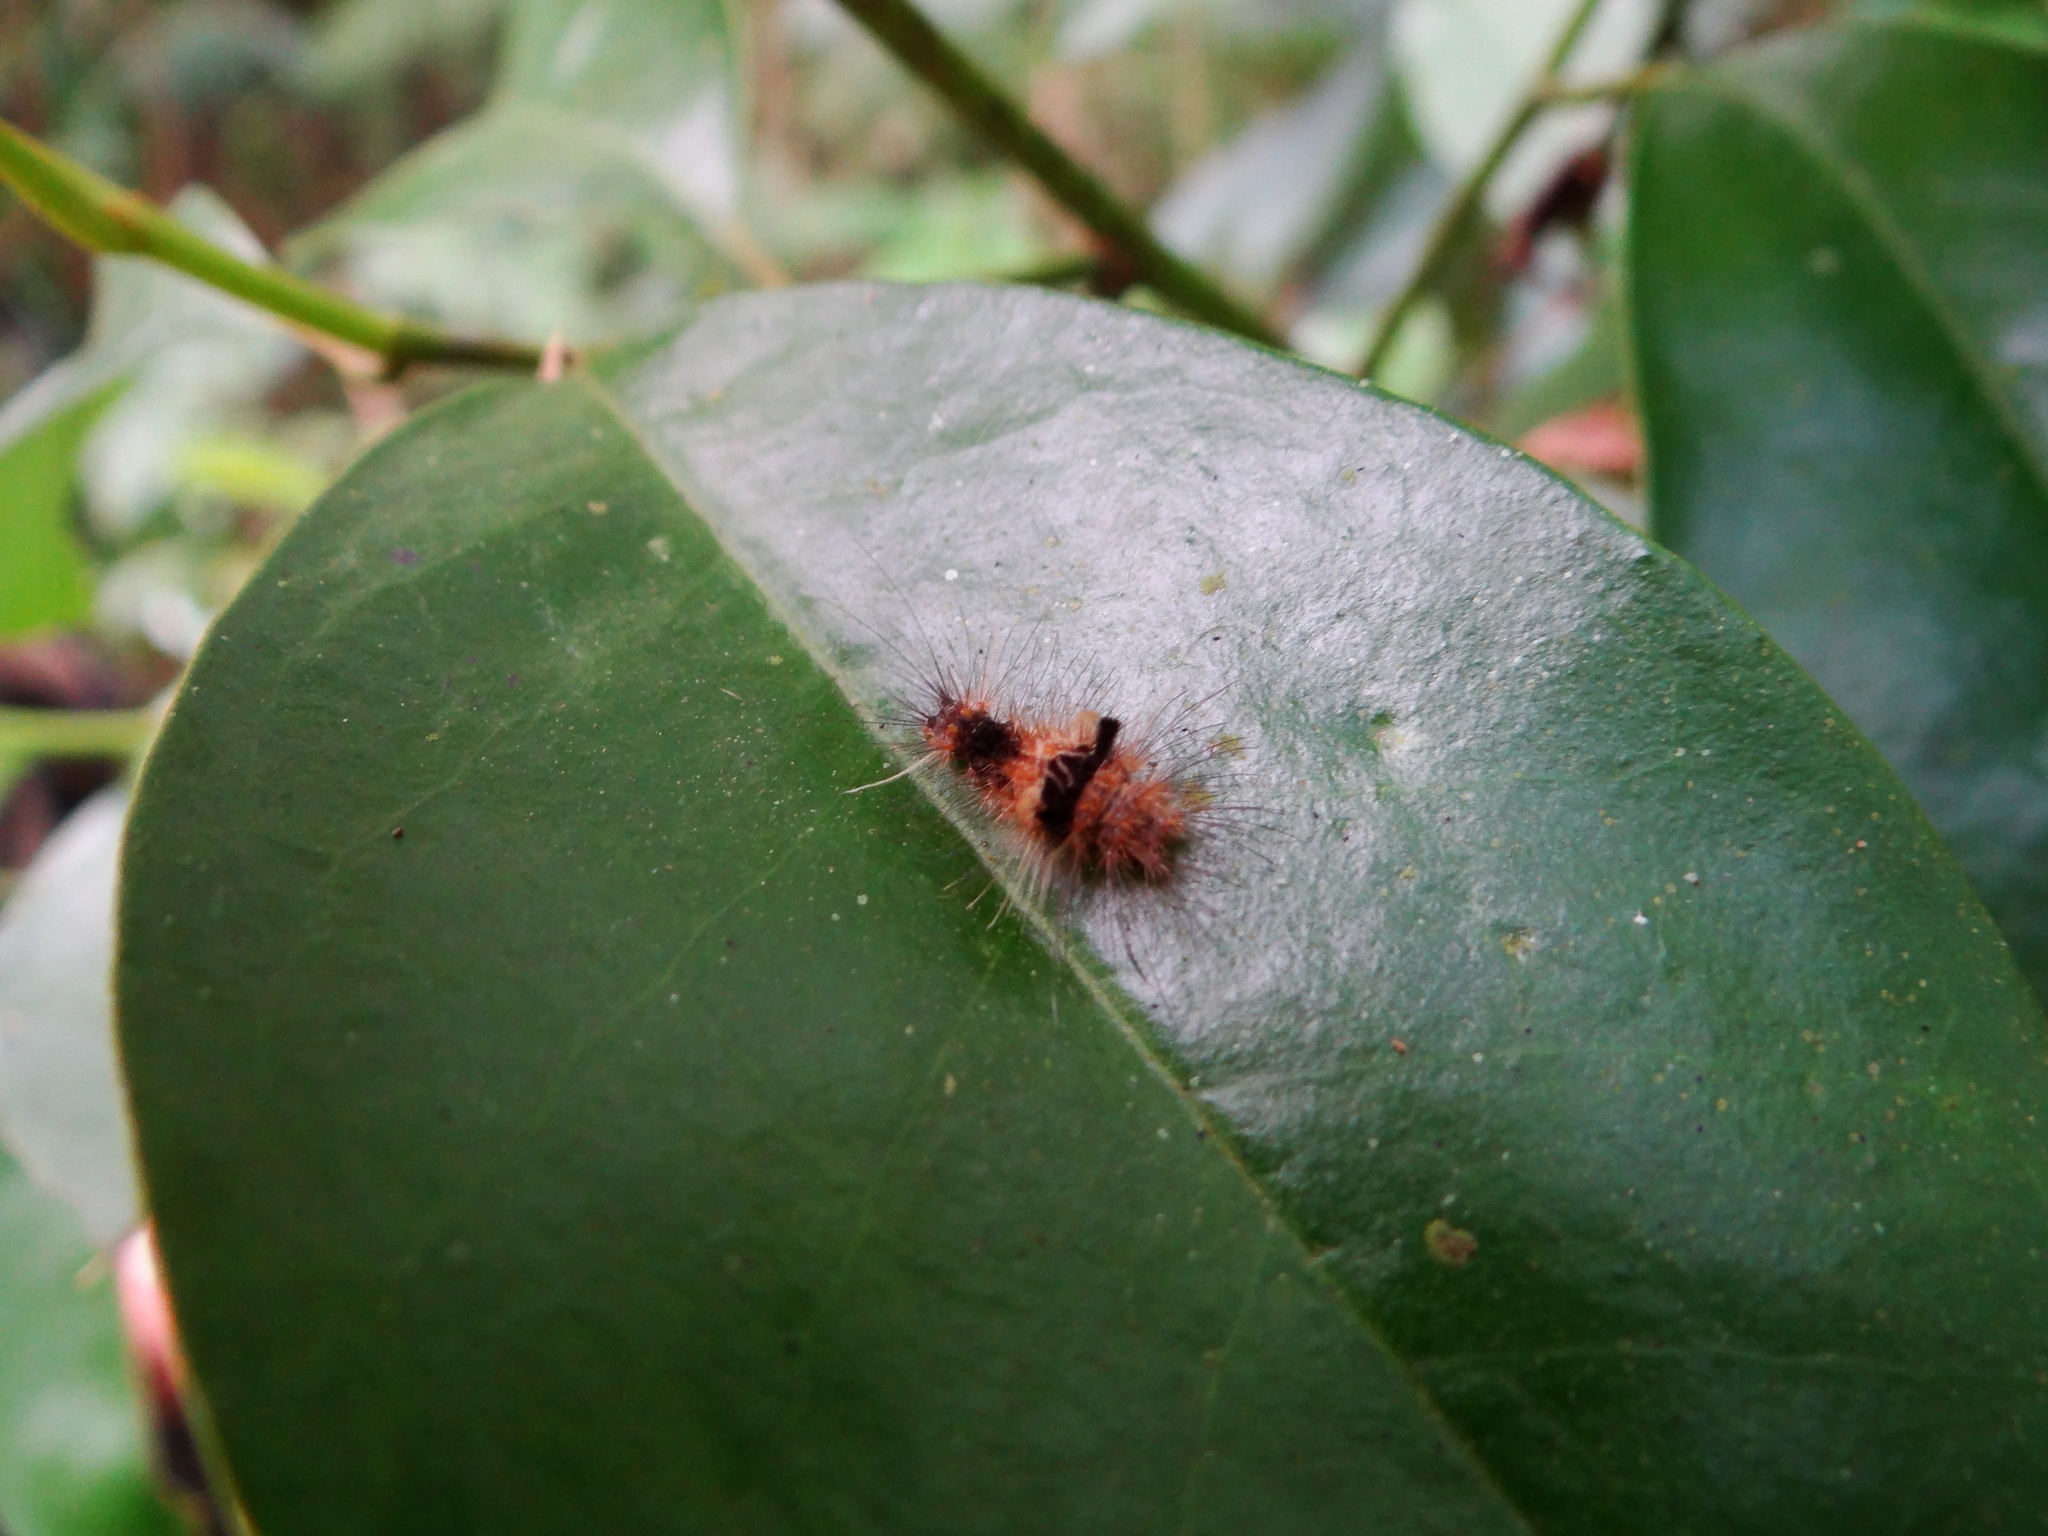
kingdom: Animalia
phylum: Arthropoda
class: Insecta
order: Lepidoptera
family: Erebidae
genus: Floridasura
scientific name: Floridasura tricolor
